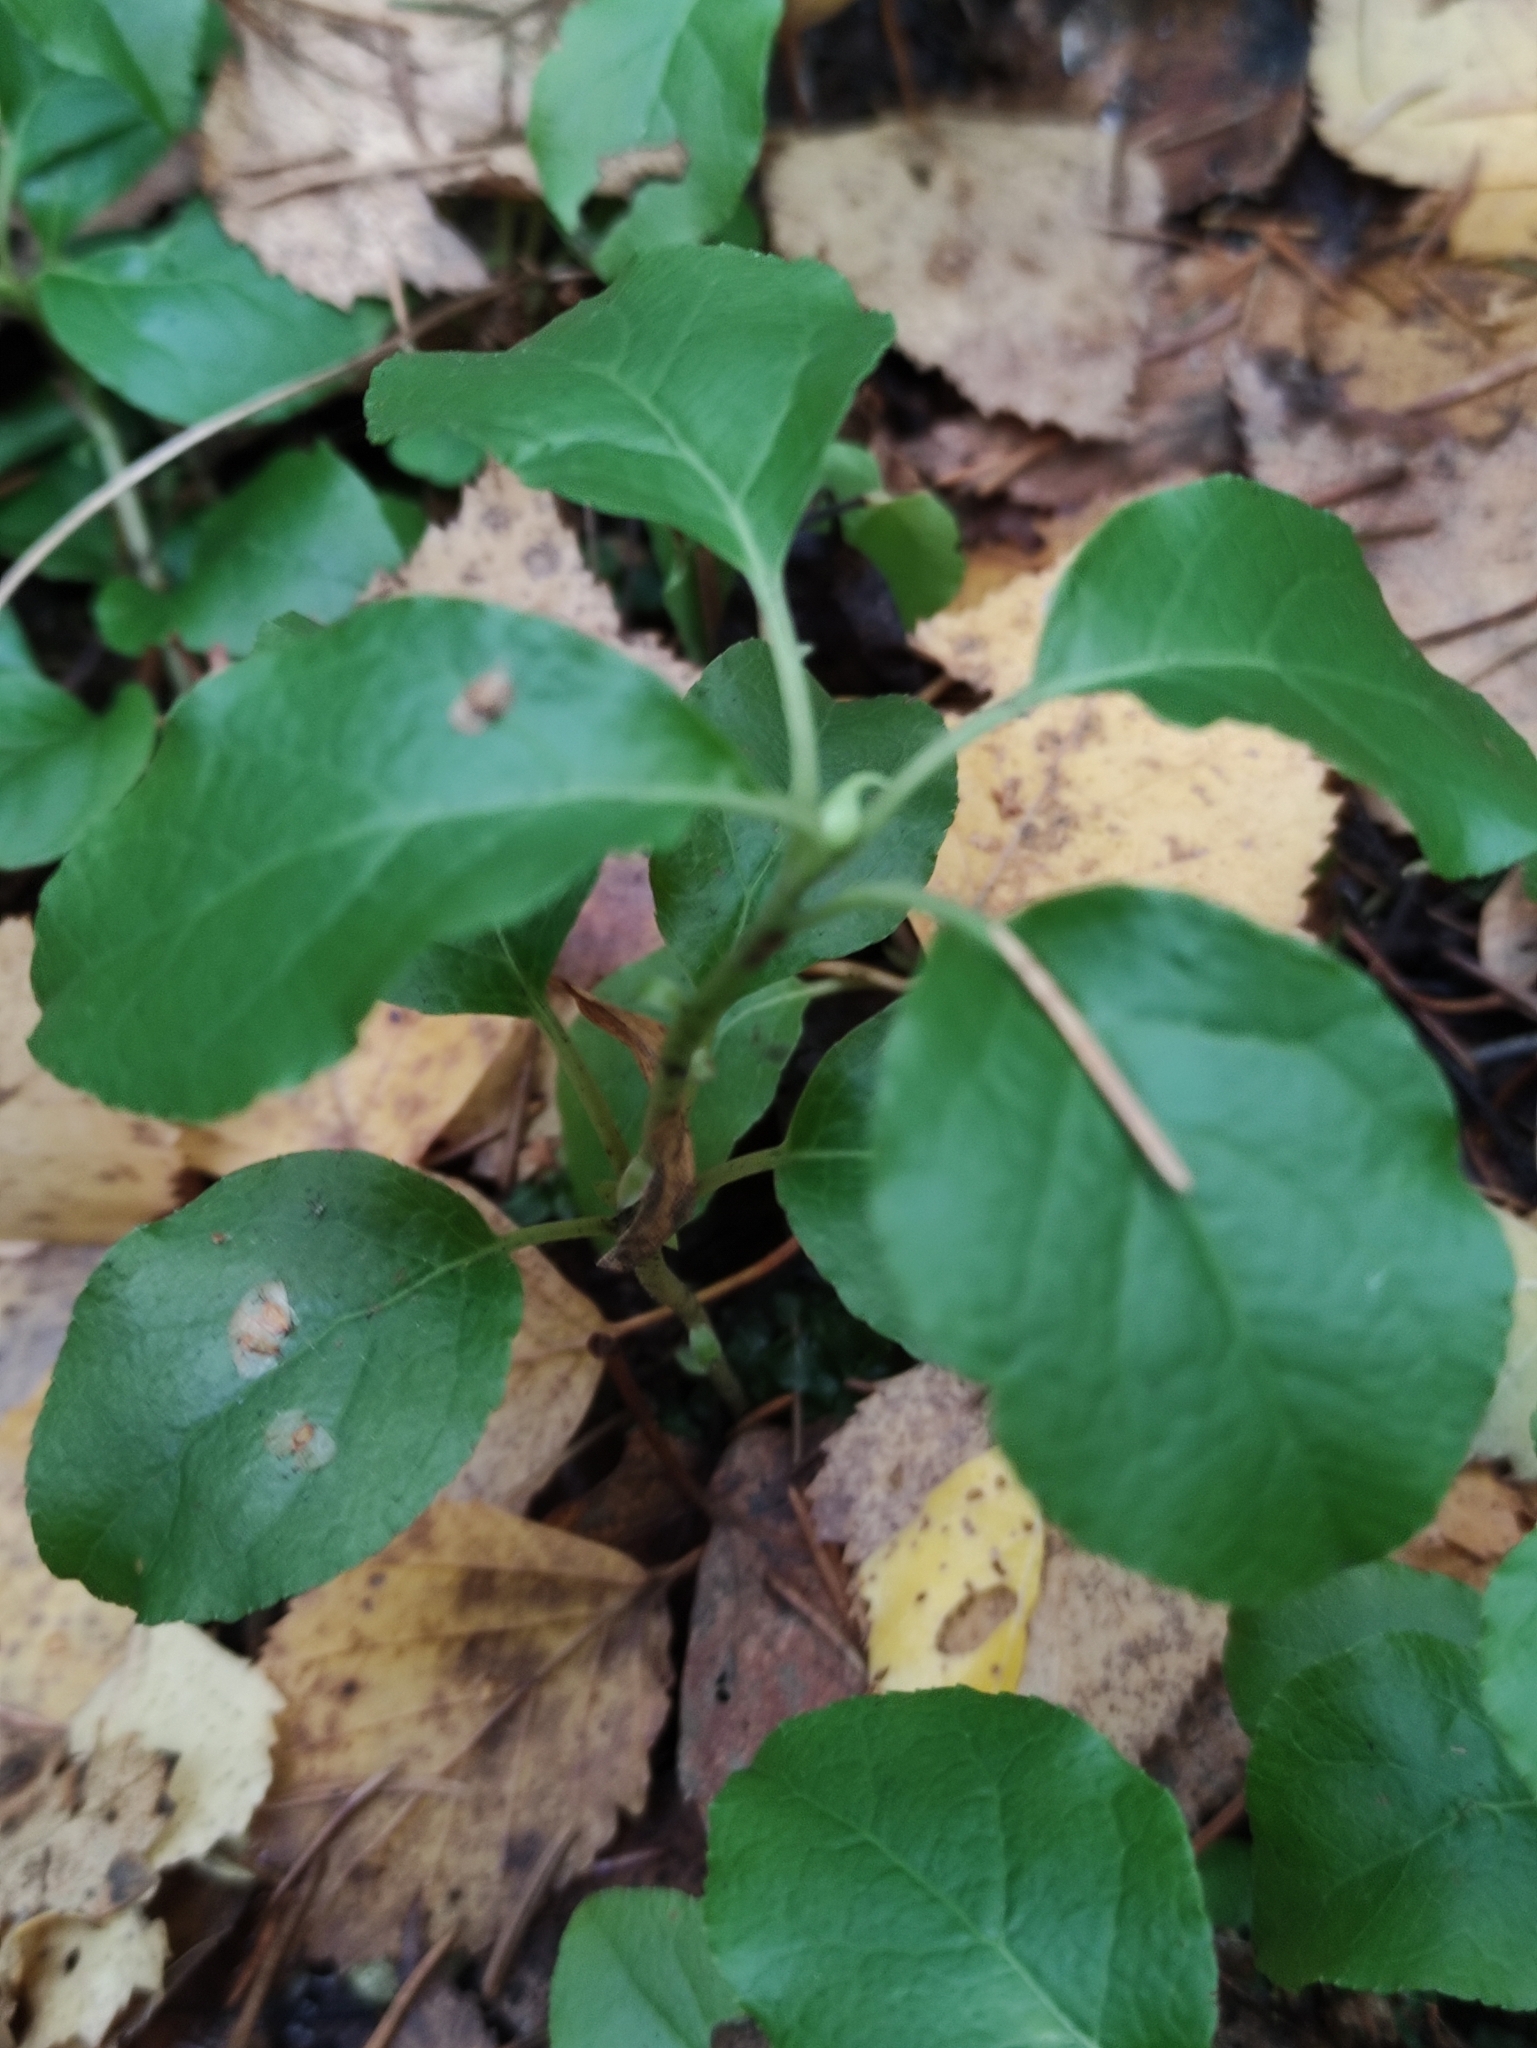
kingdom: Plantae
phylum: Tracheophyta
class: Magnoliopsida
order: Ericales
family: Ericaceae
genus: Orthilia
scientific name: Orthilia secunda
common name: One-sided orthilia
